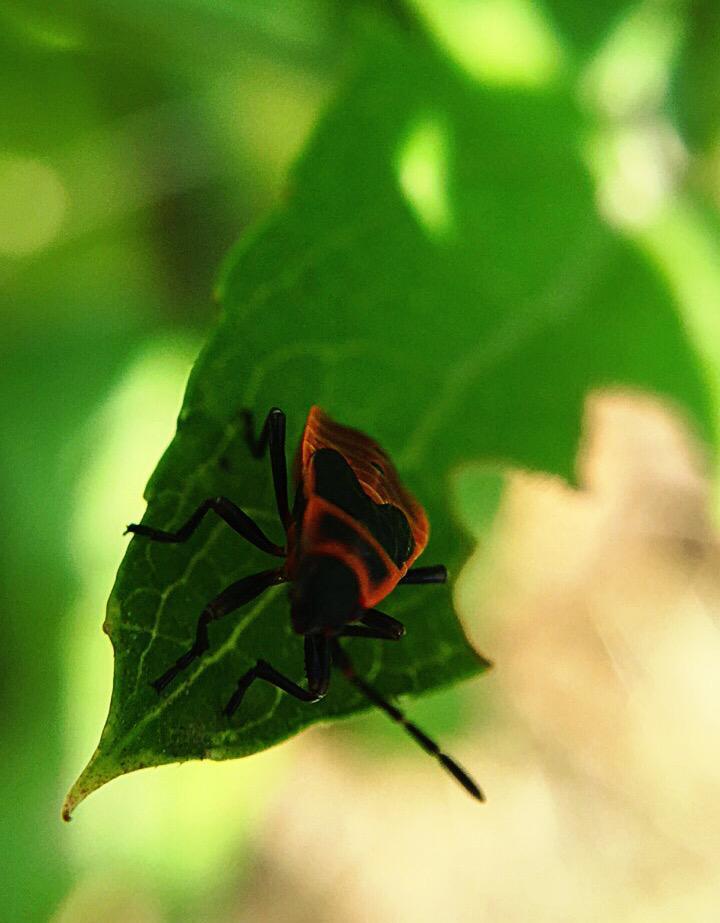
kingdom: Animalia
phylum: Arthropoda
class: Insecta
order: Hemiptera
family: Pyrrhocoridae
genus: Pyrrhocoris
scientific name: Pyrrhocoris apterus
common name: Firebug
